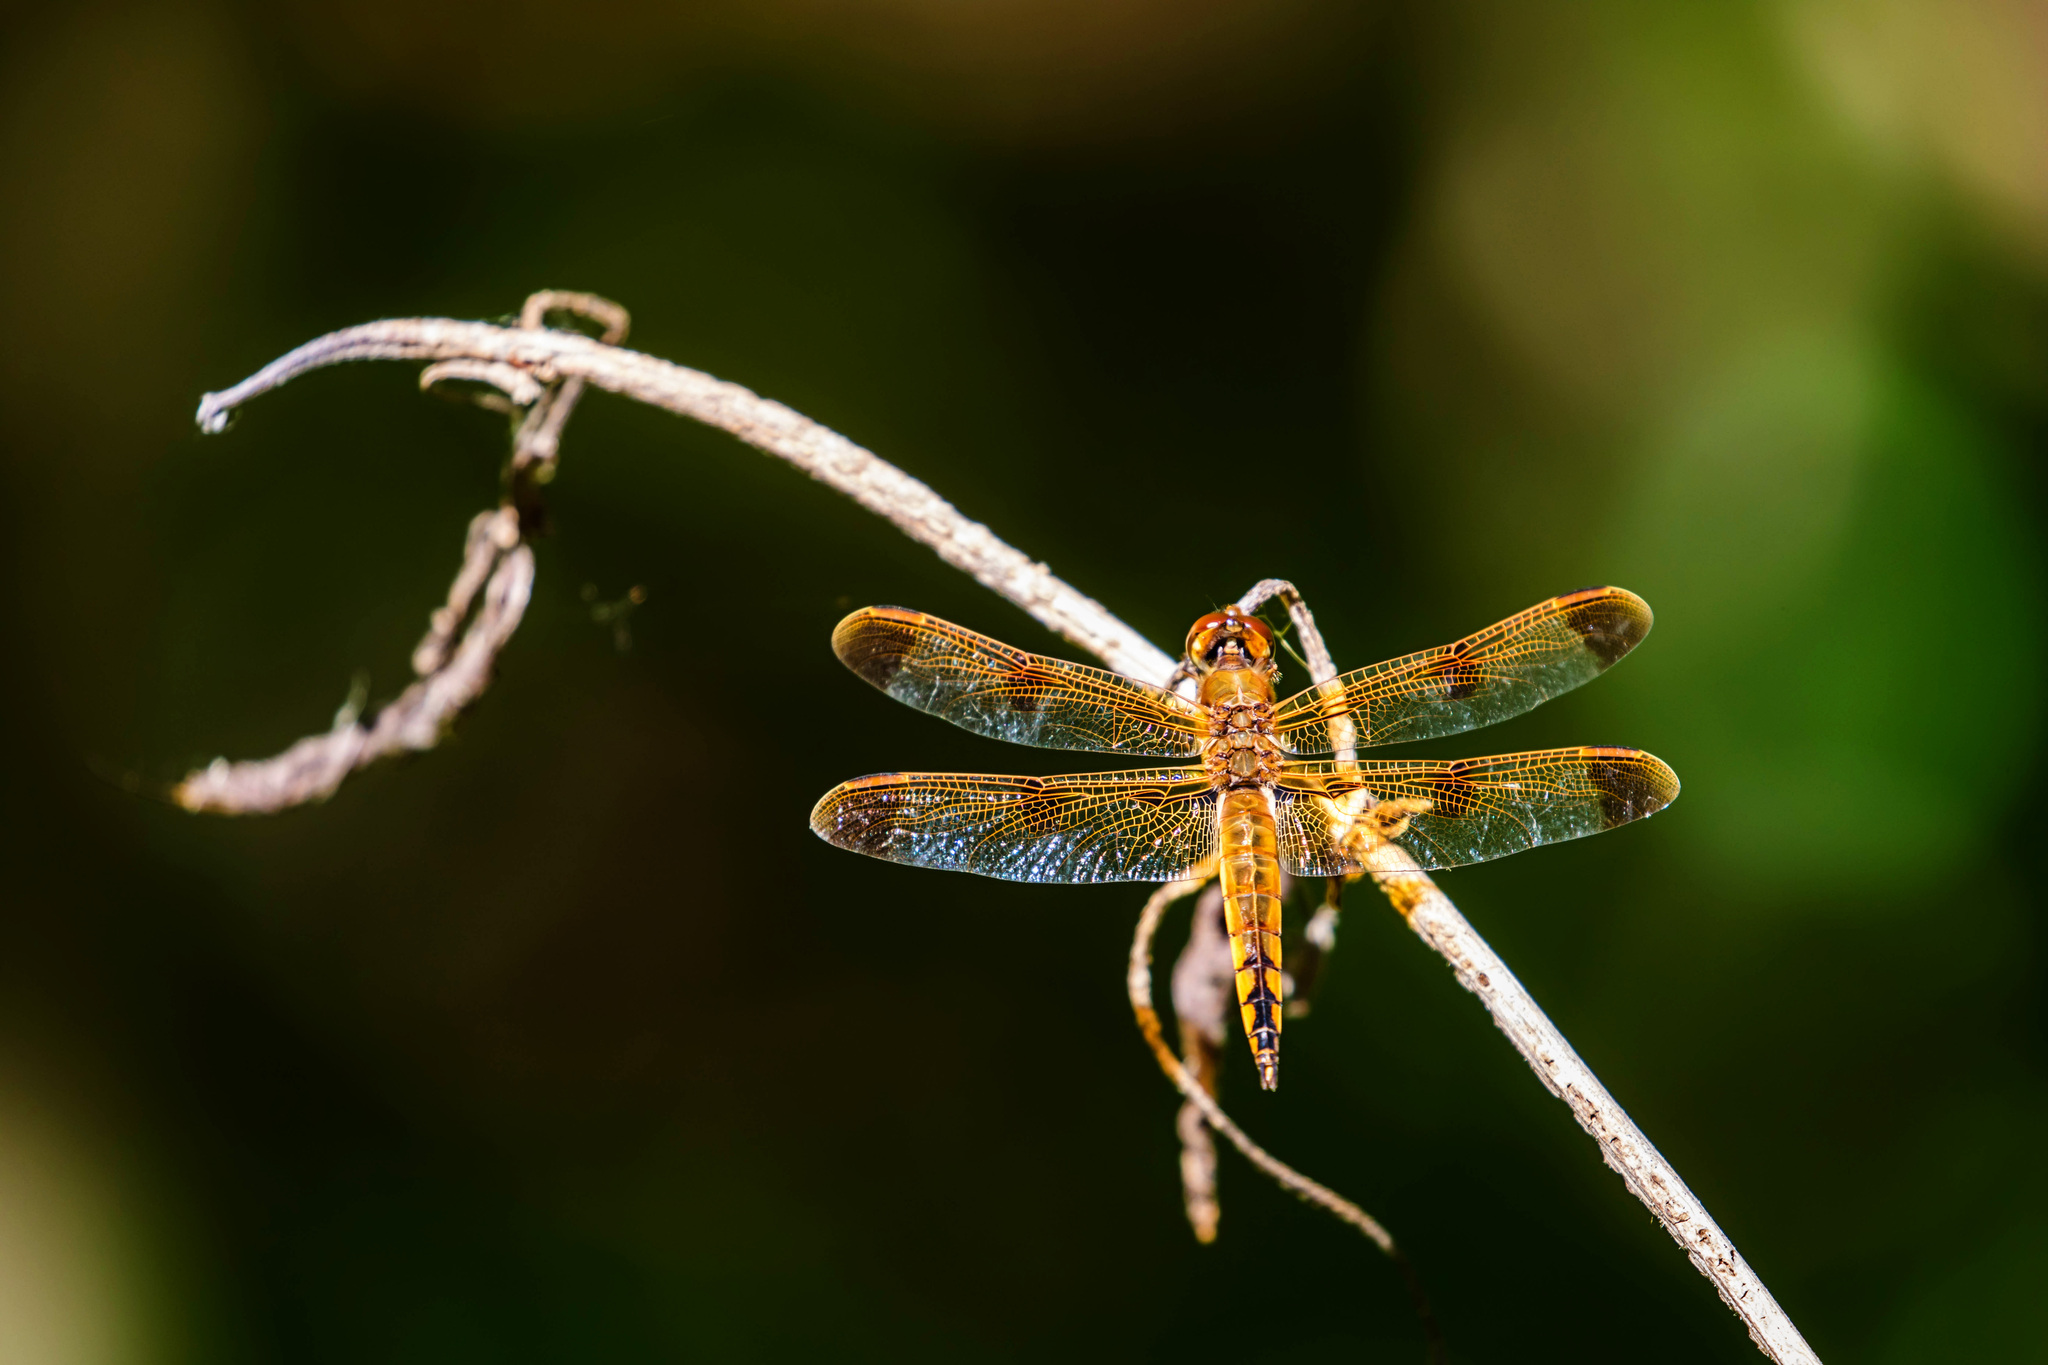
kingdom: Animalia
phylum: Arthropoda
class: Insecta
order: Odonata
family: Libellulidae
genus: Libellula
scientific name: Libellula semifasciata
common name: Painted skimmer
